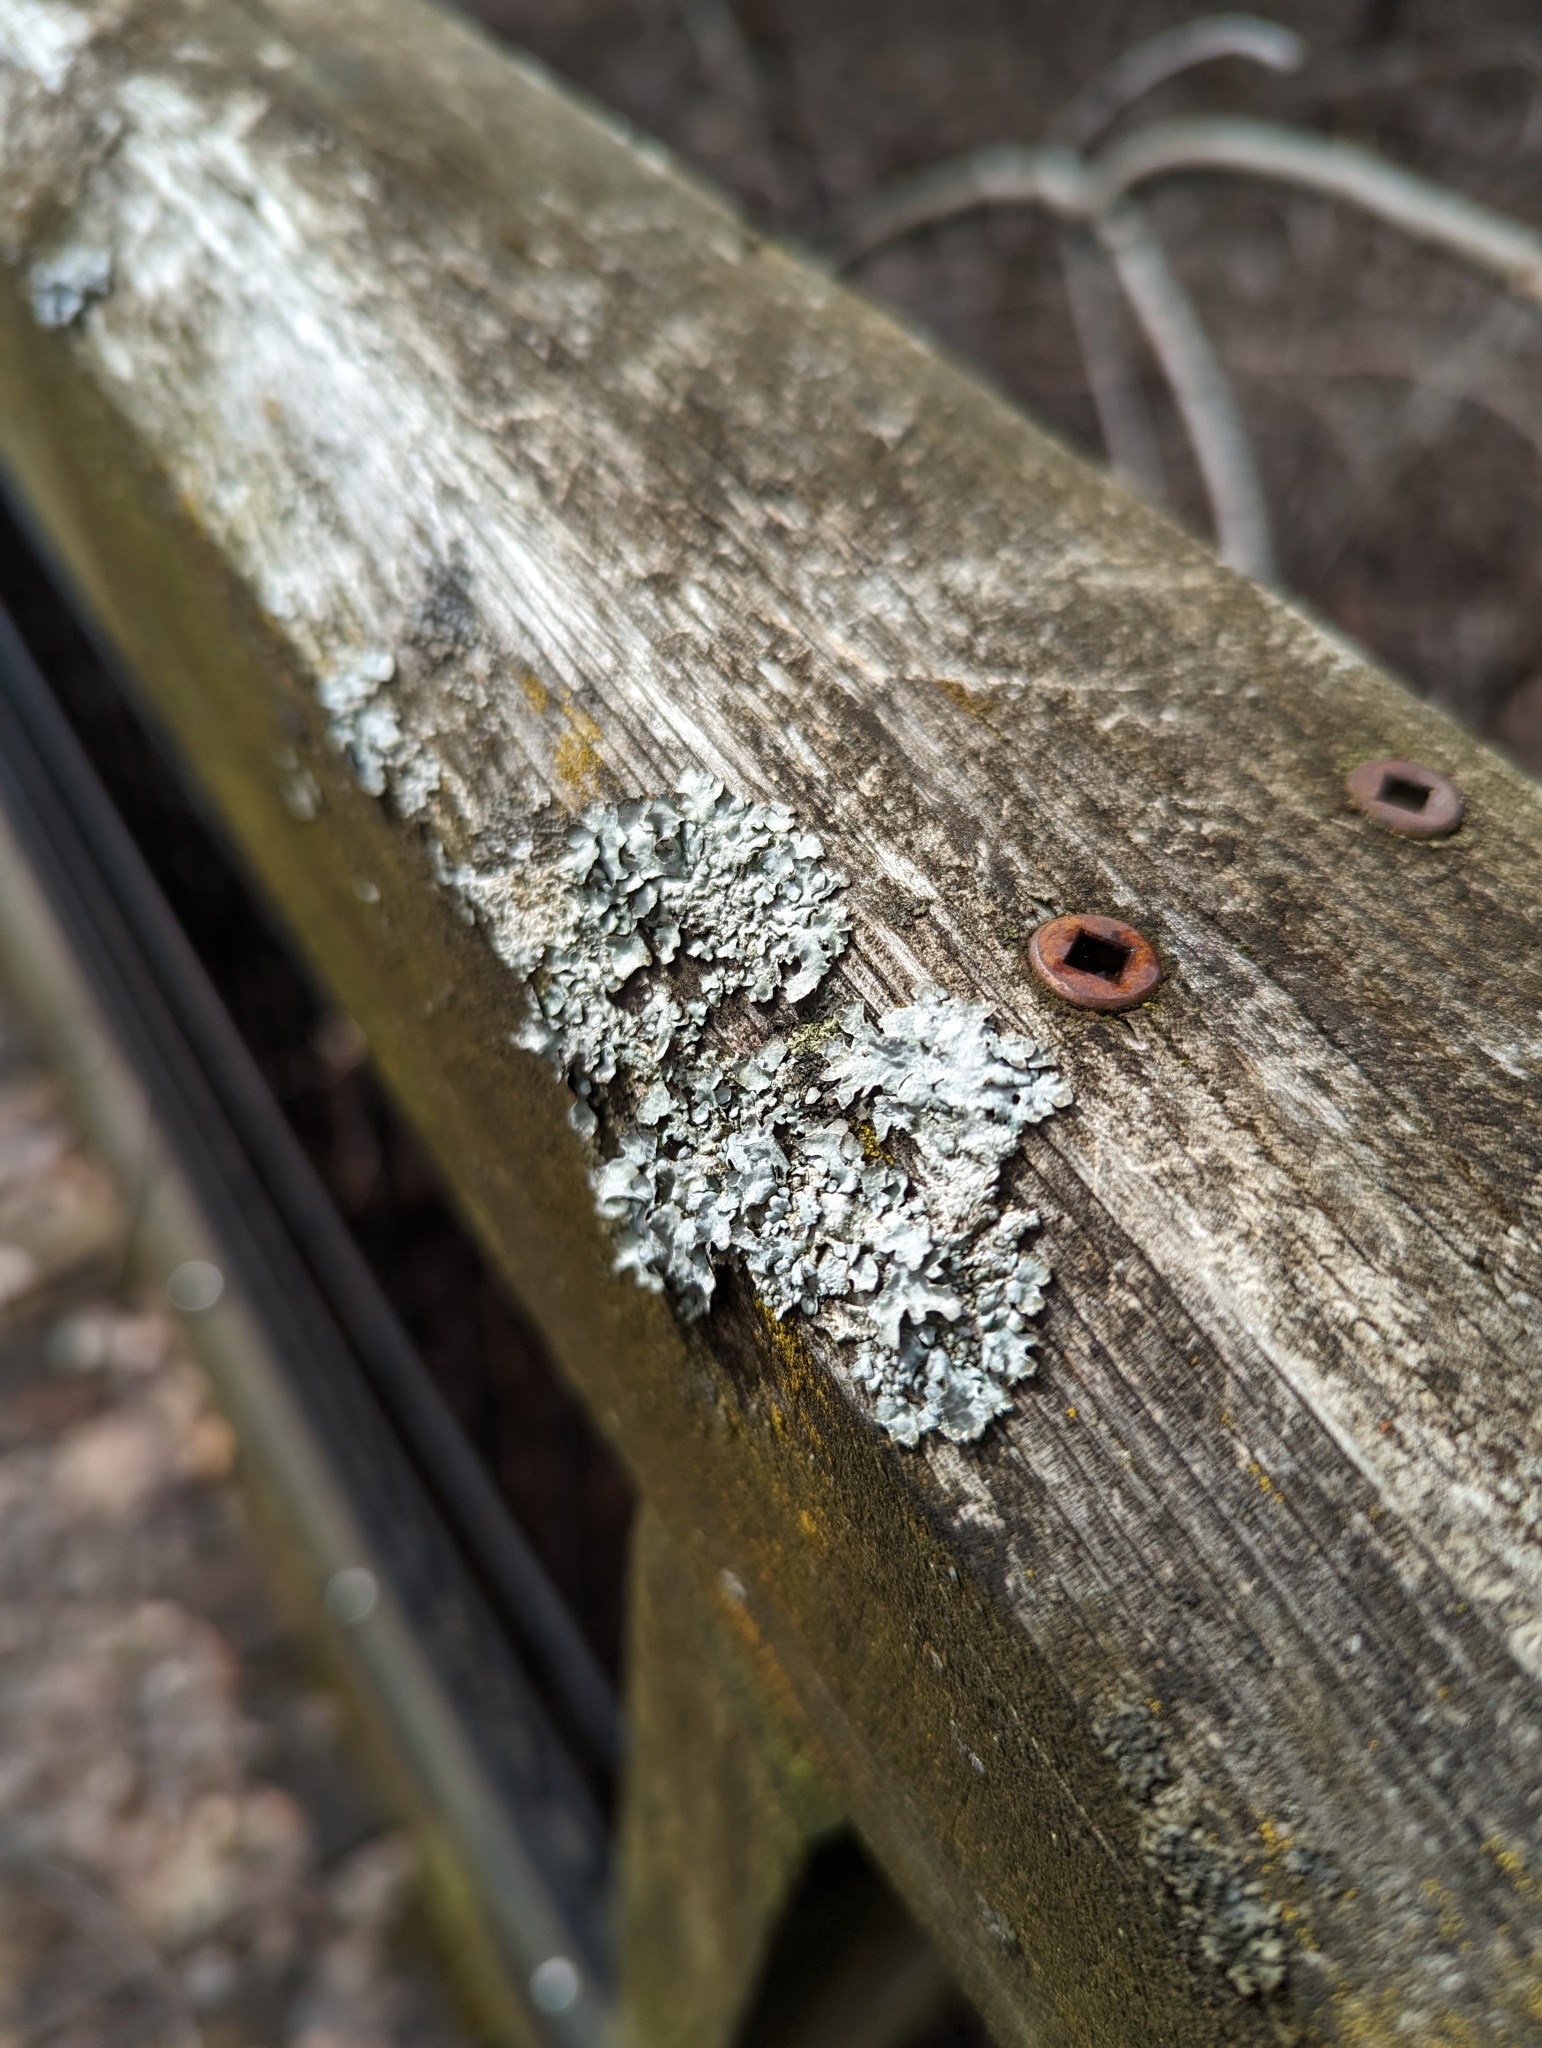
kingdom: Fungi
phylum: Ascomycota
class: Lecanoromycetes
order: Lecanorales
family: Parmeliaceae
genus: Parmelia
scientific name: Parmelia sulcata
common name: Netted shield lichen
